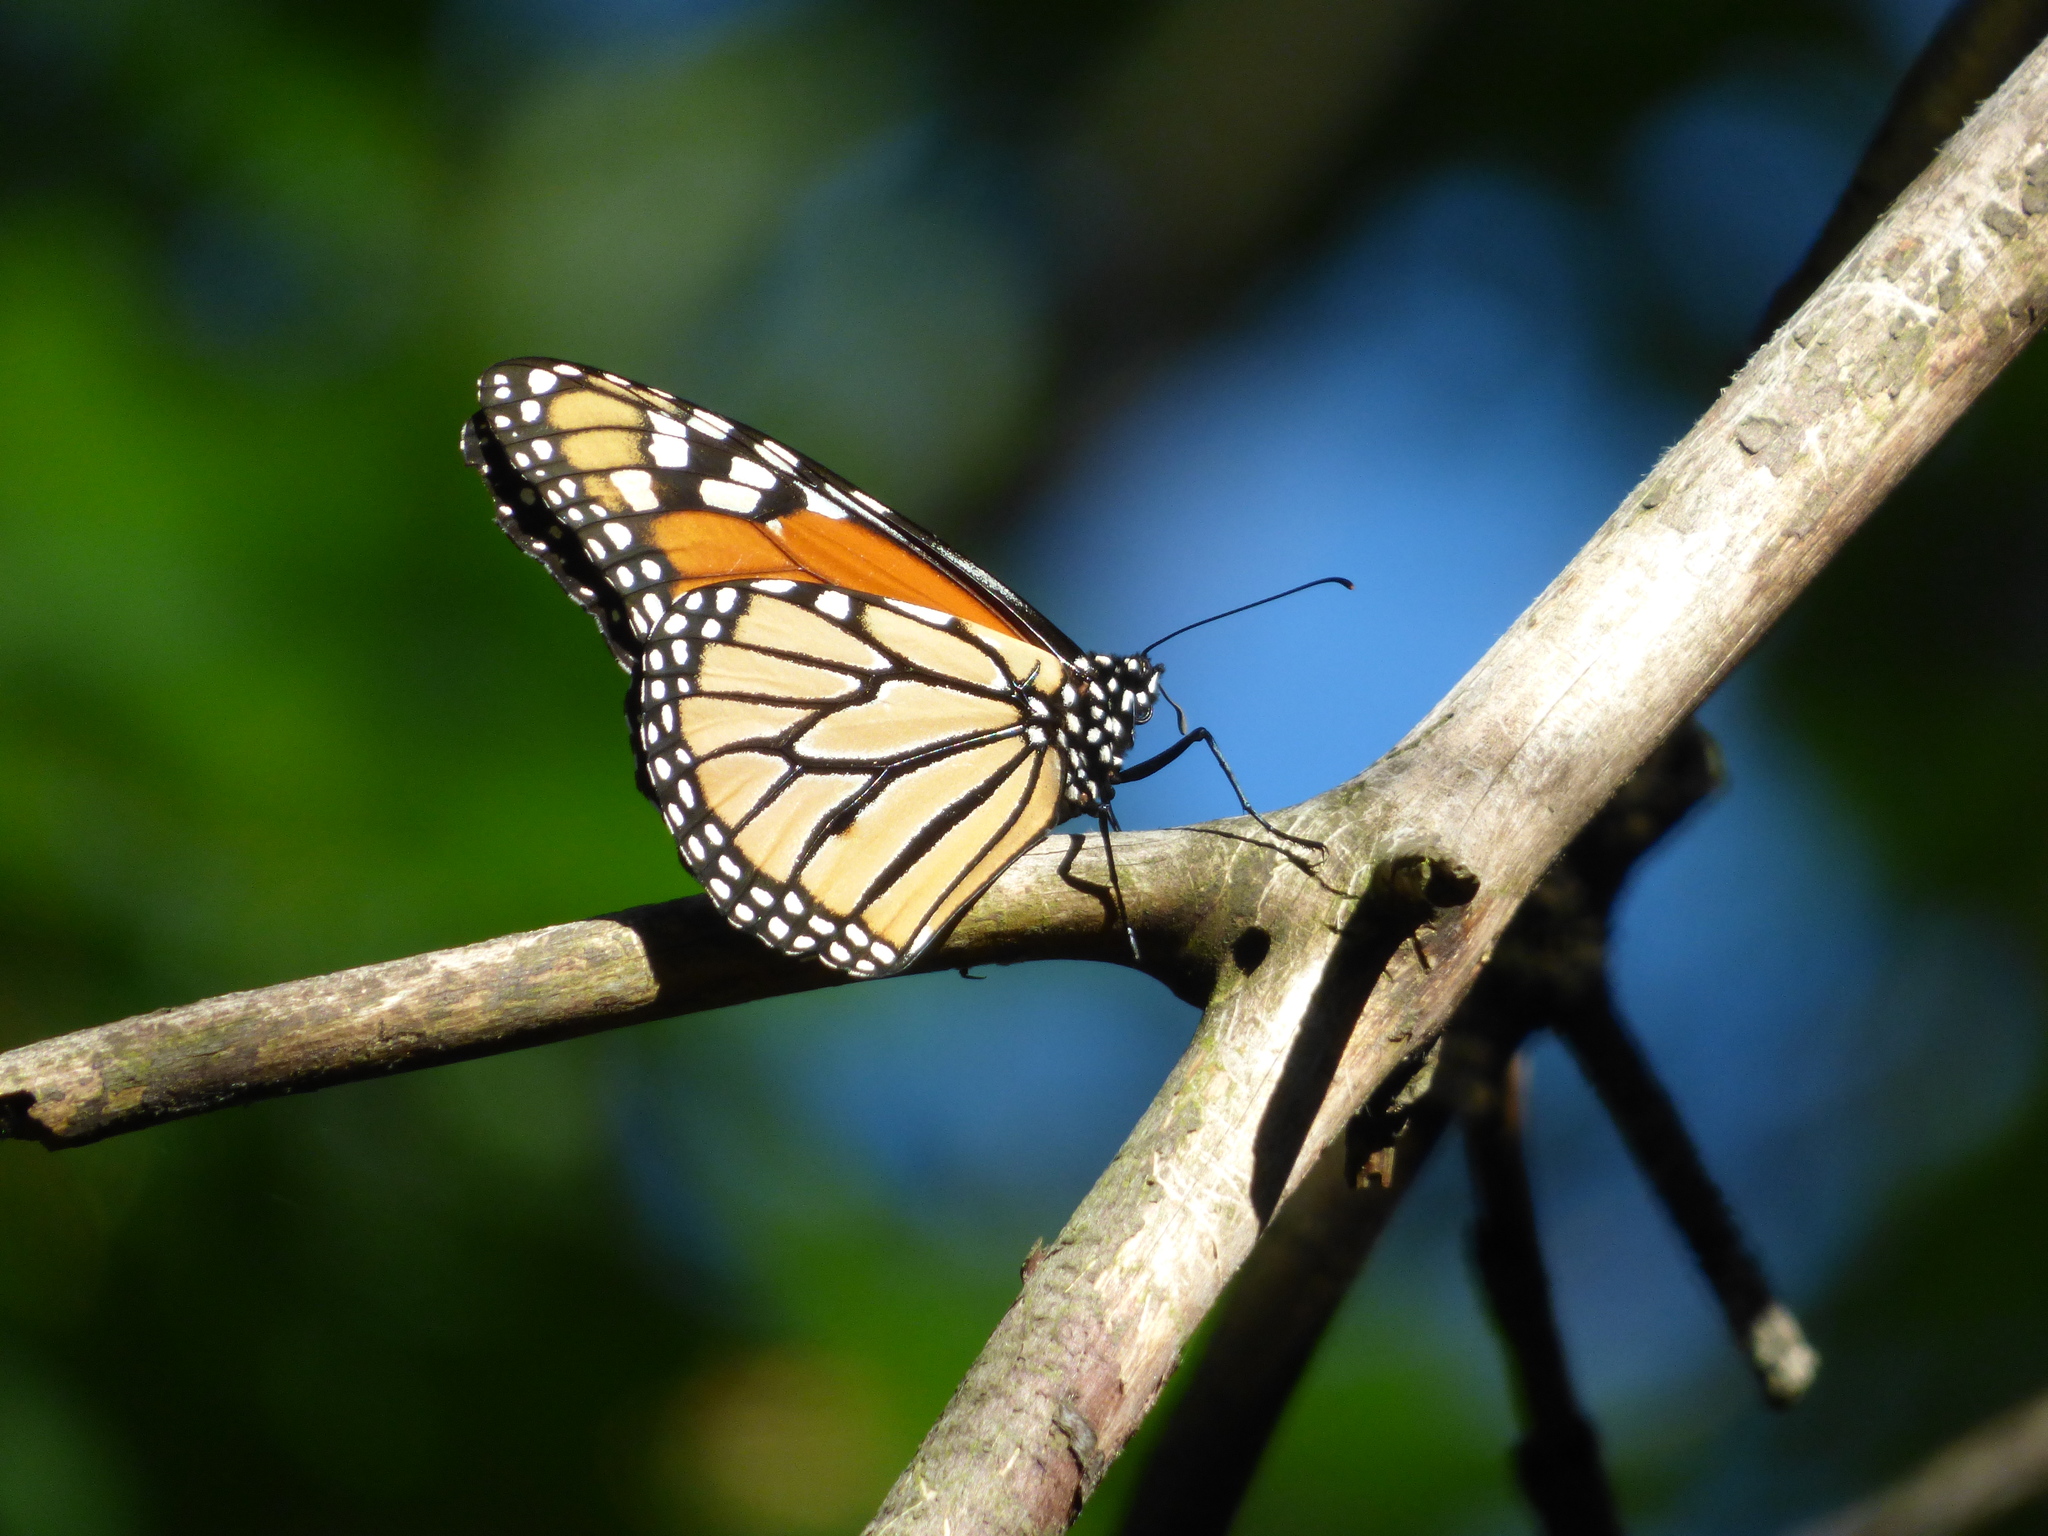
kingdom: Animalia
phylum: Arthropoda
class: Insecta
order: Lepidoptera
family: Nymphalidae
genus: Danaus
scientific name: Danaus plexippus
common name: Monarch
